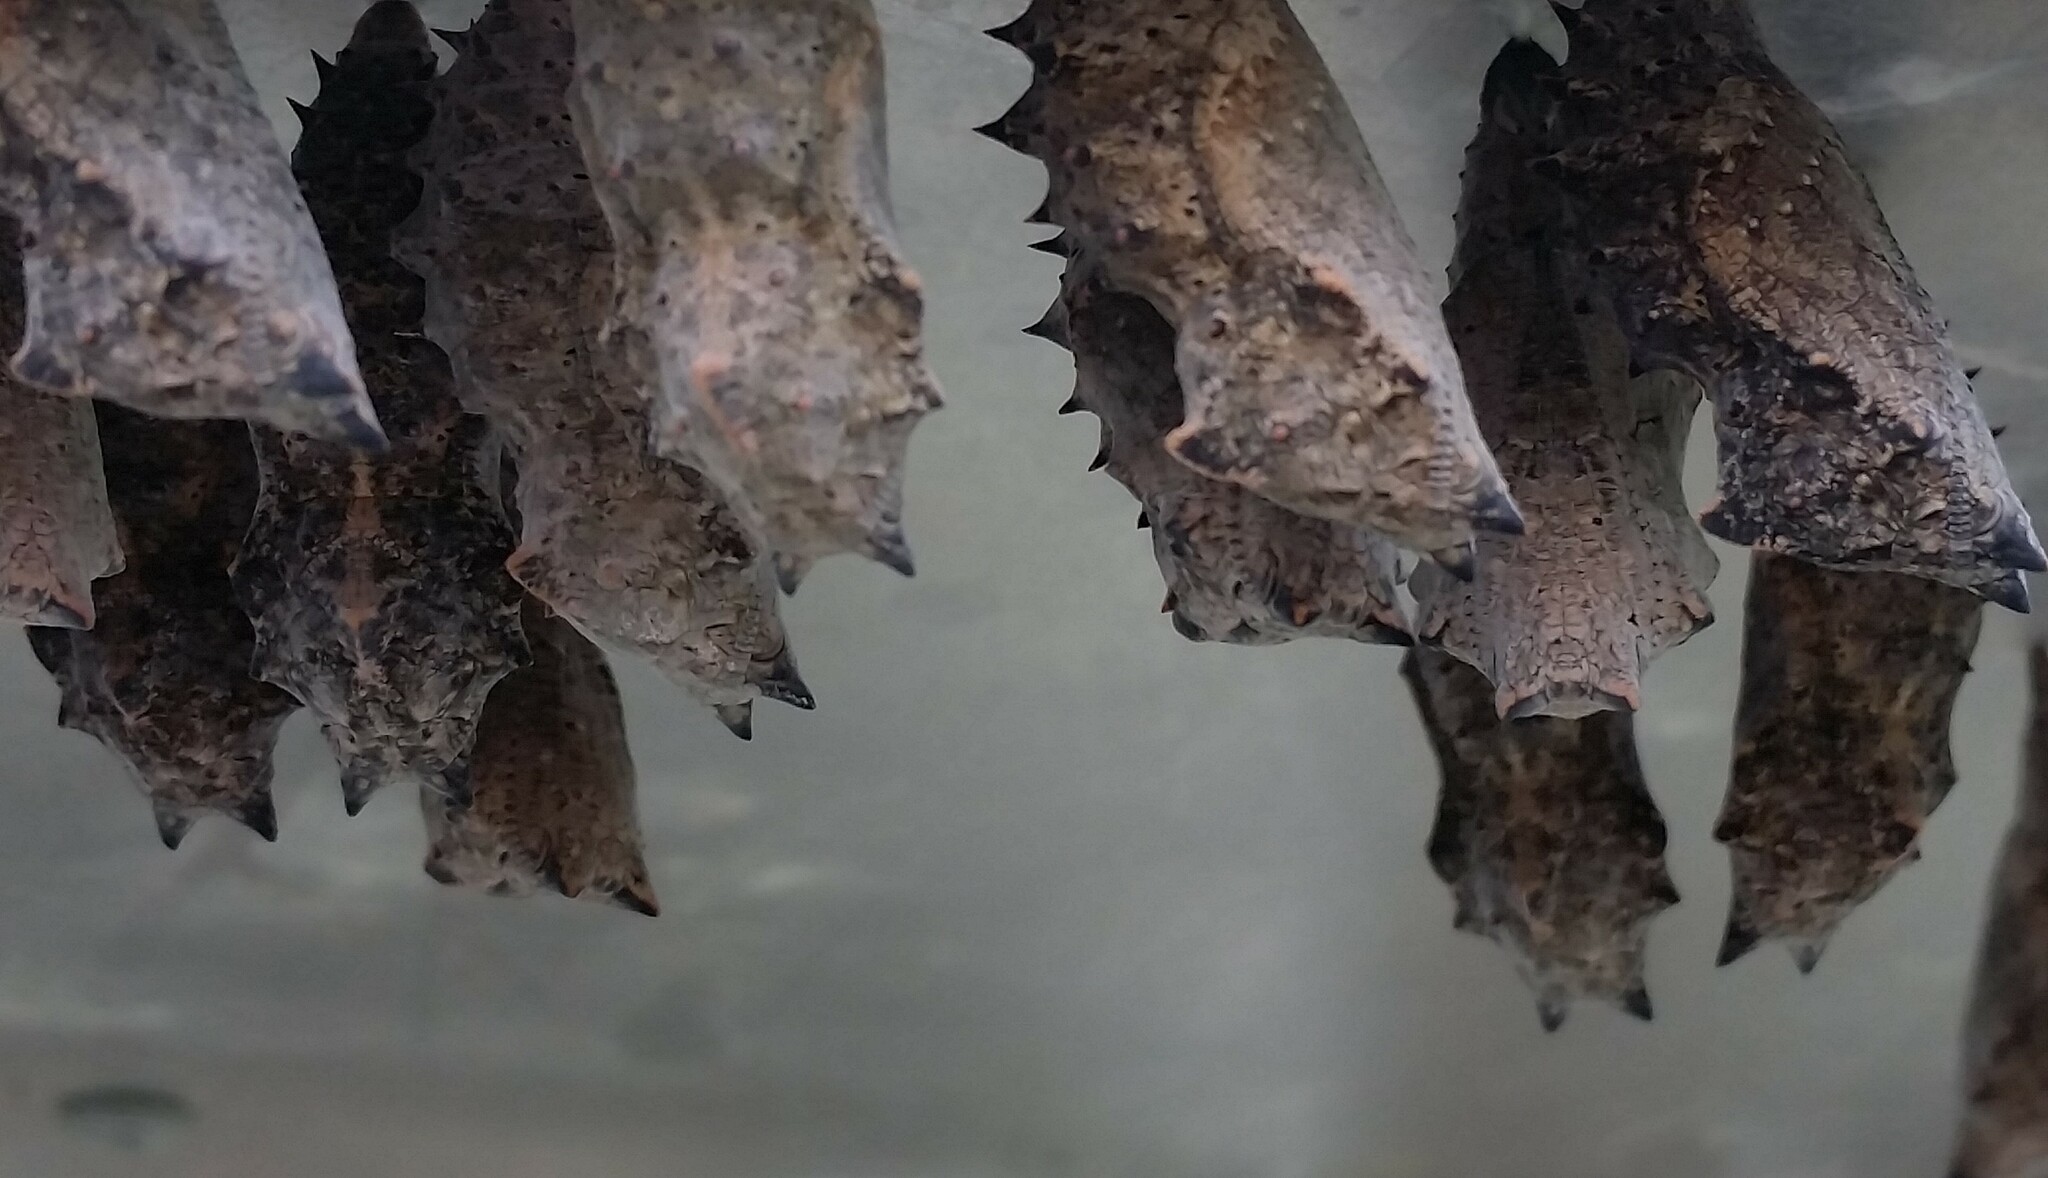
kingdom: Animalia
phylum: Arthropoda
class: Insecta
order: Lepidoptera
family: Nymphalidae
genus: Nymphalis
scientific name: Nymphalis antiopa
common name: Camberwell beauty
